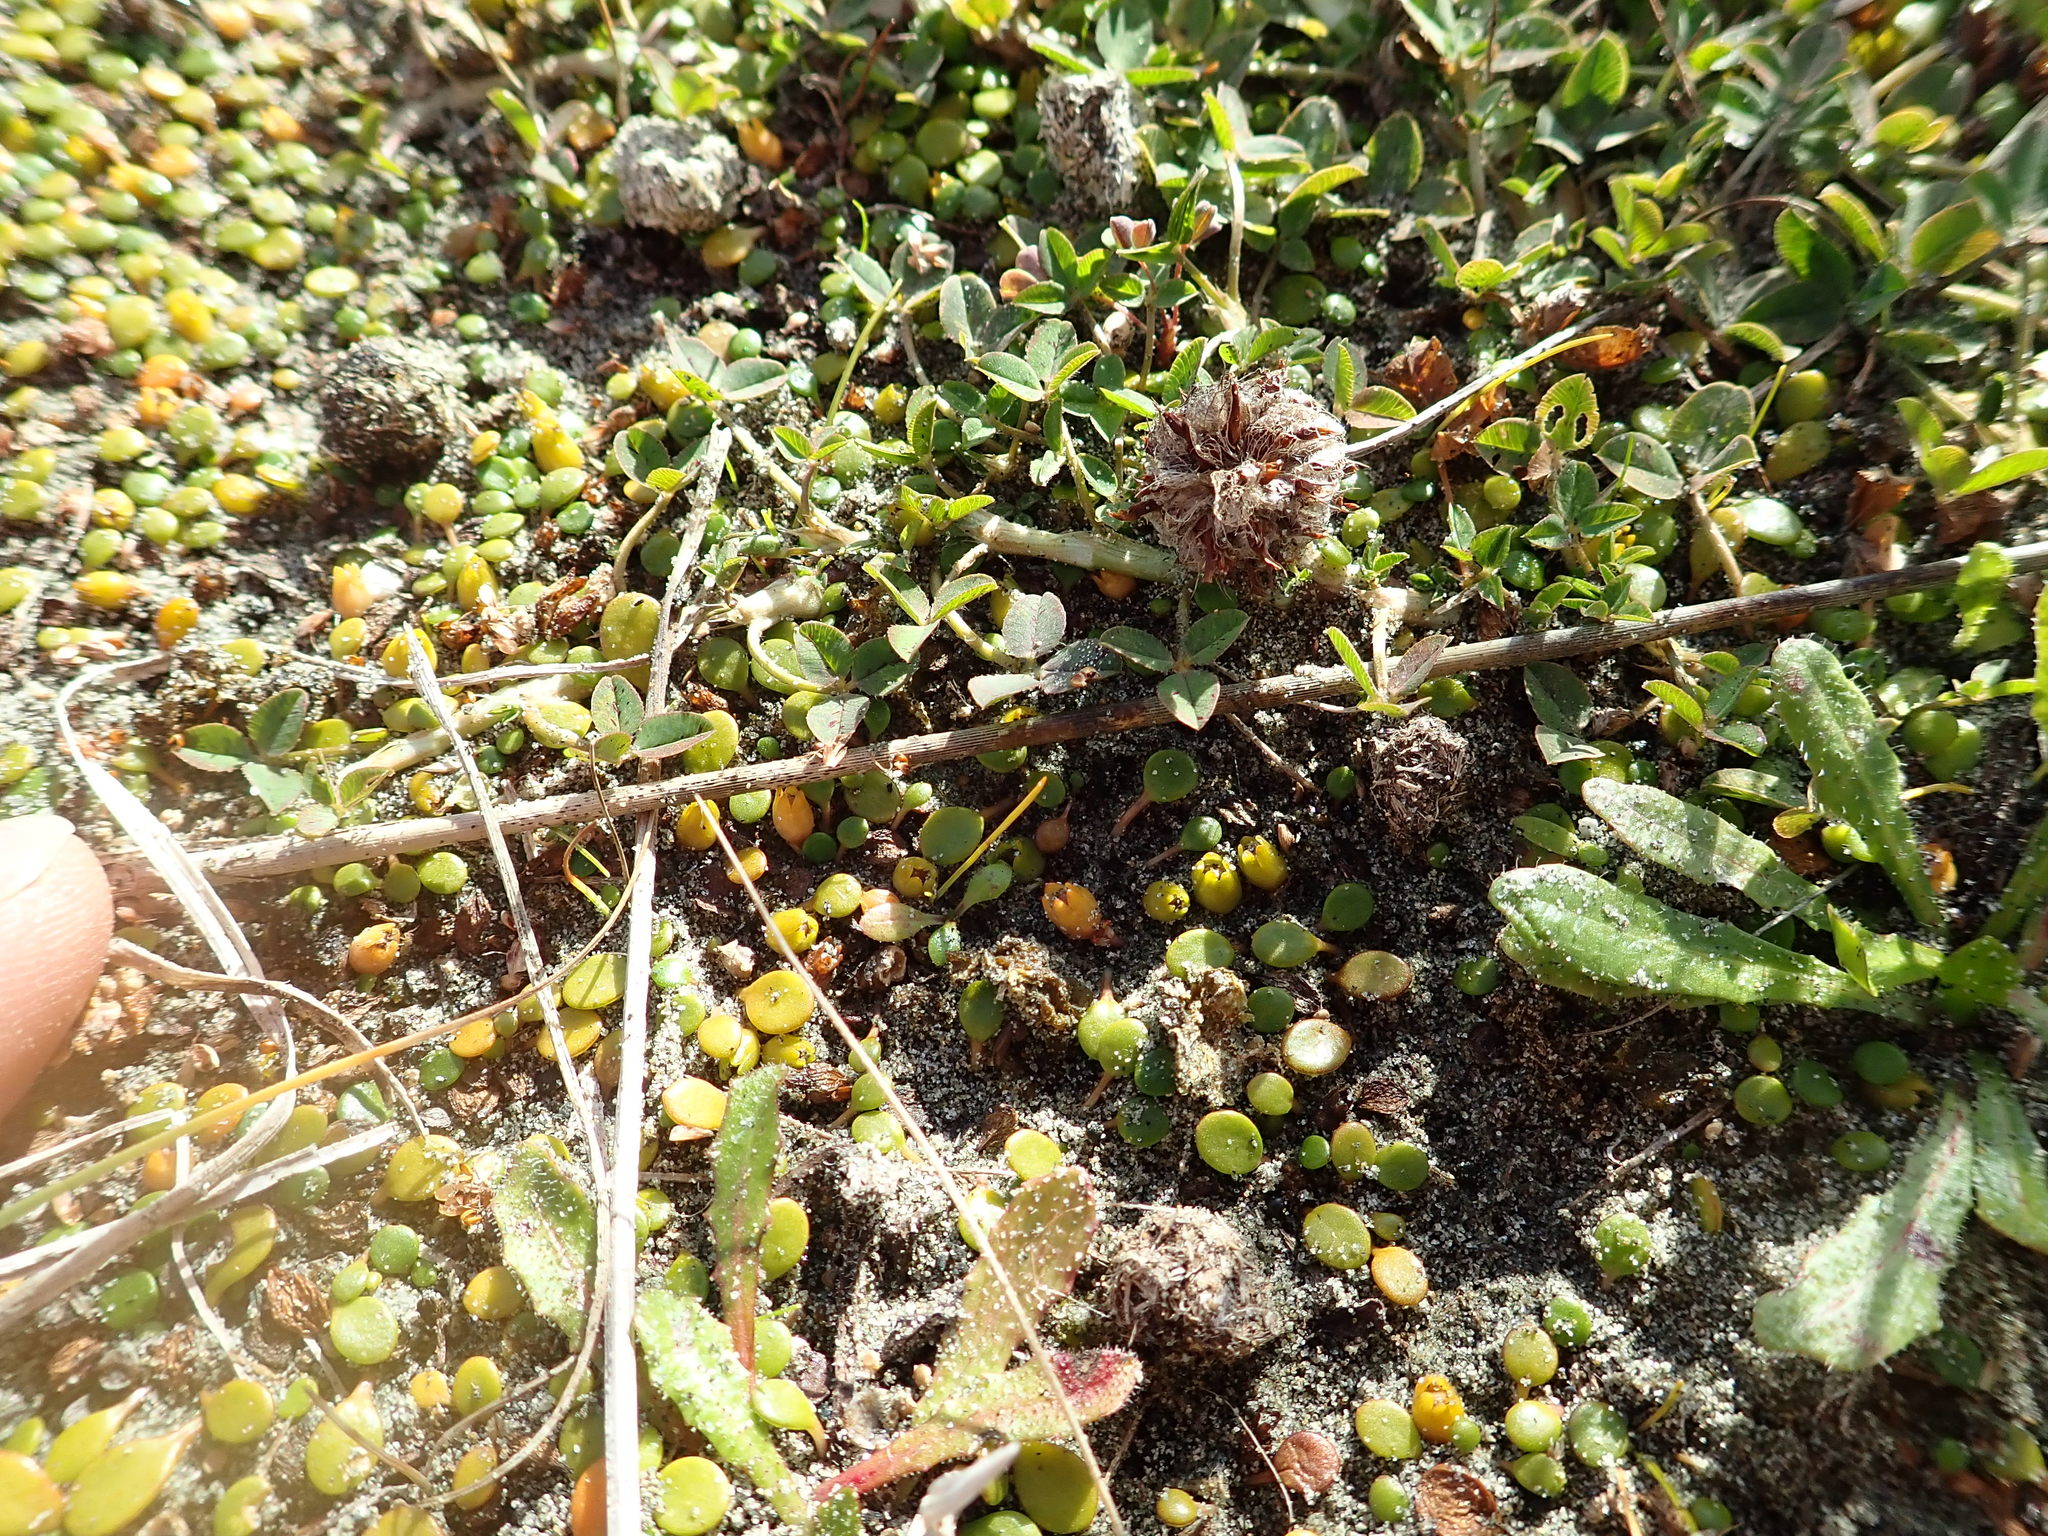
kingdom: Plantae
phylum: Tracheophyta
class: Magnoliopsida
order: Fabales
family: Fabaceae
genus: Trifolium
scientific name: Trifolium fragiferum
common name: Strawberry clover
